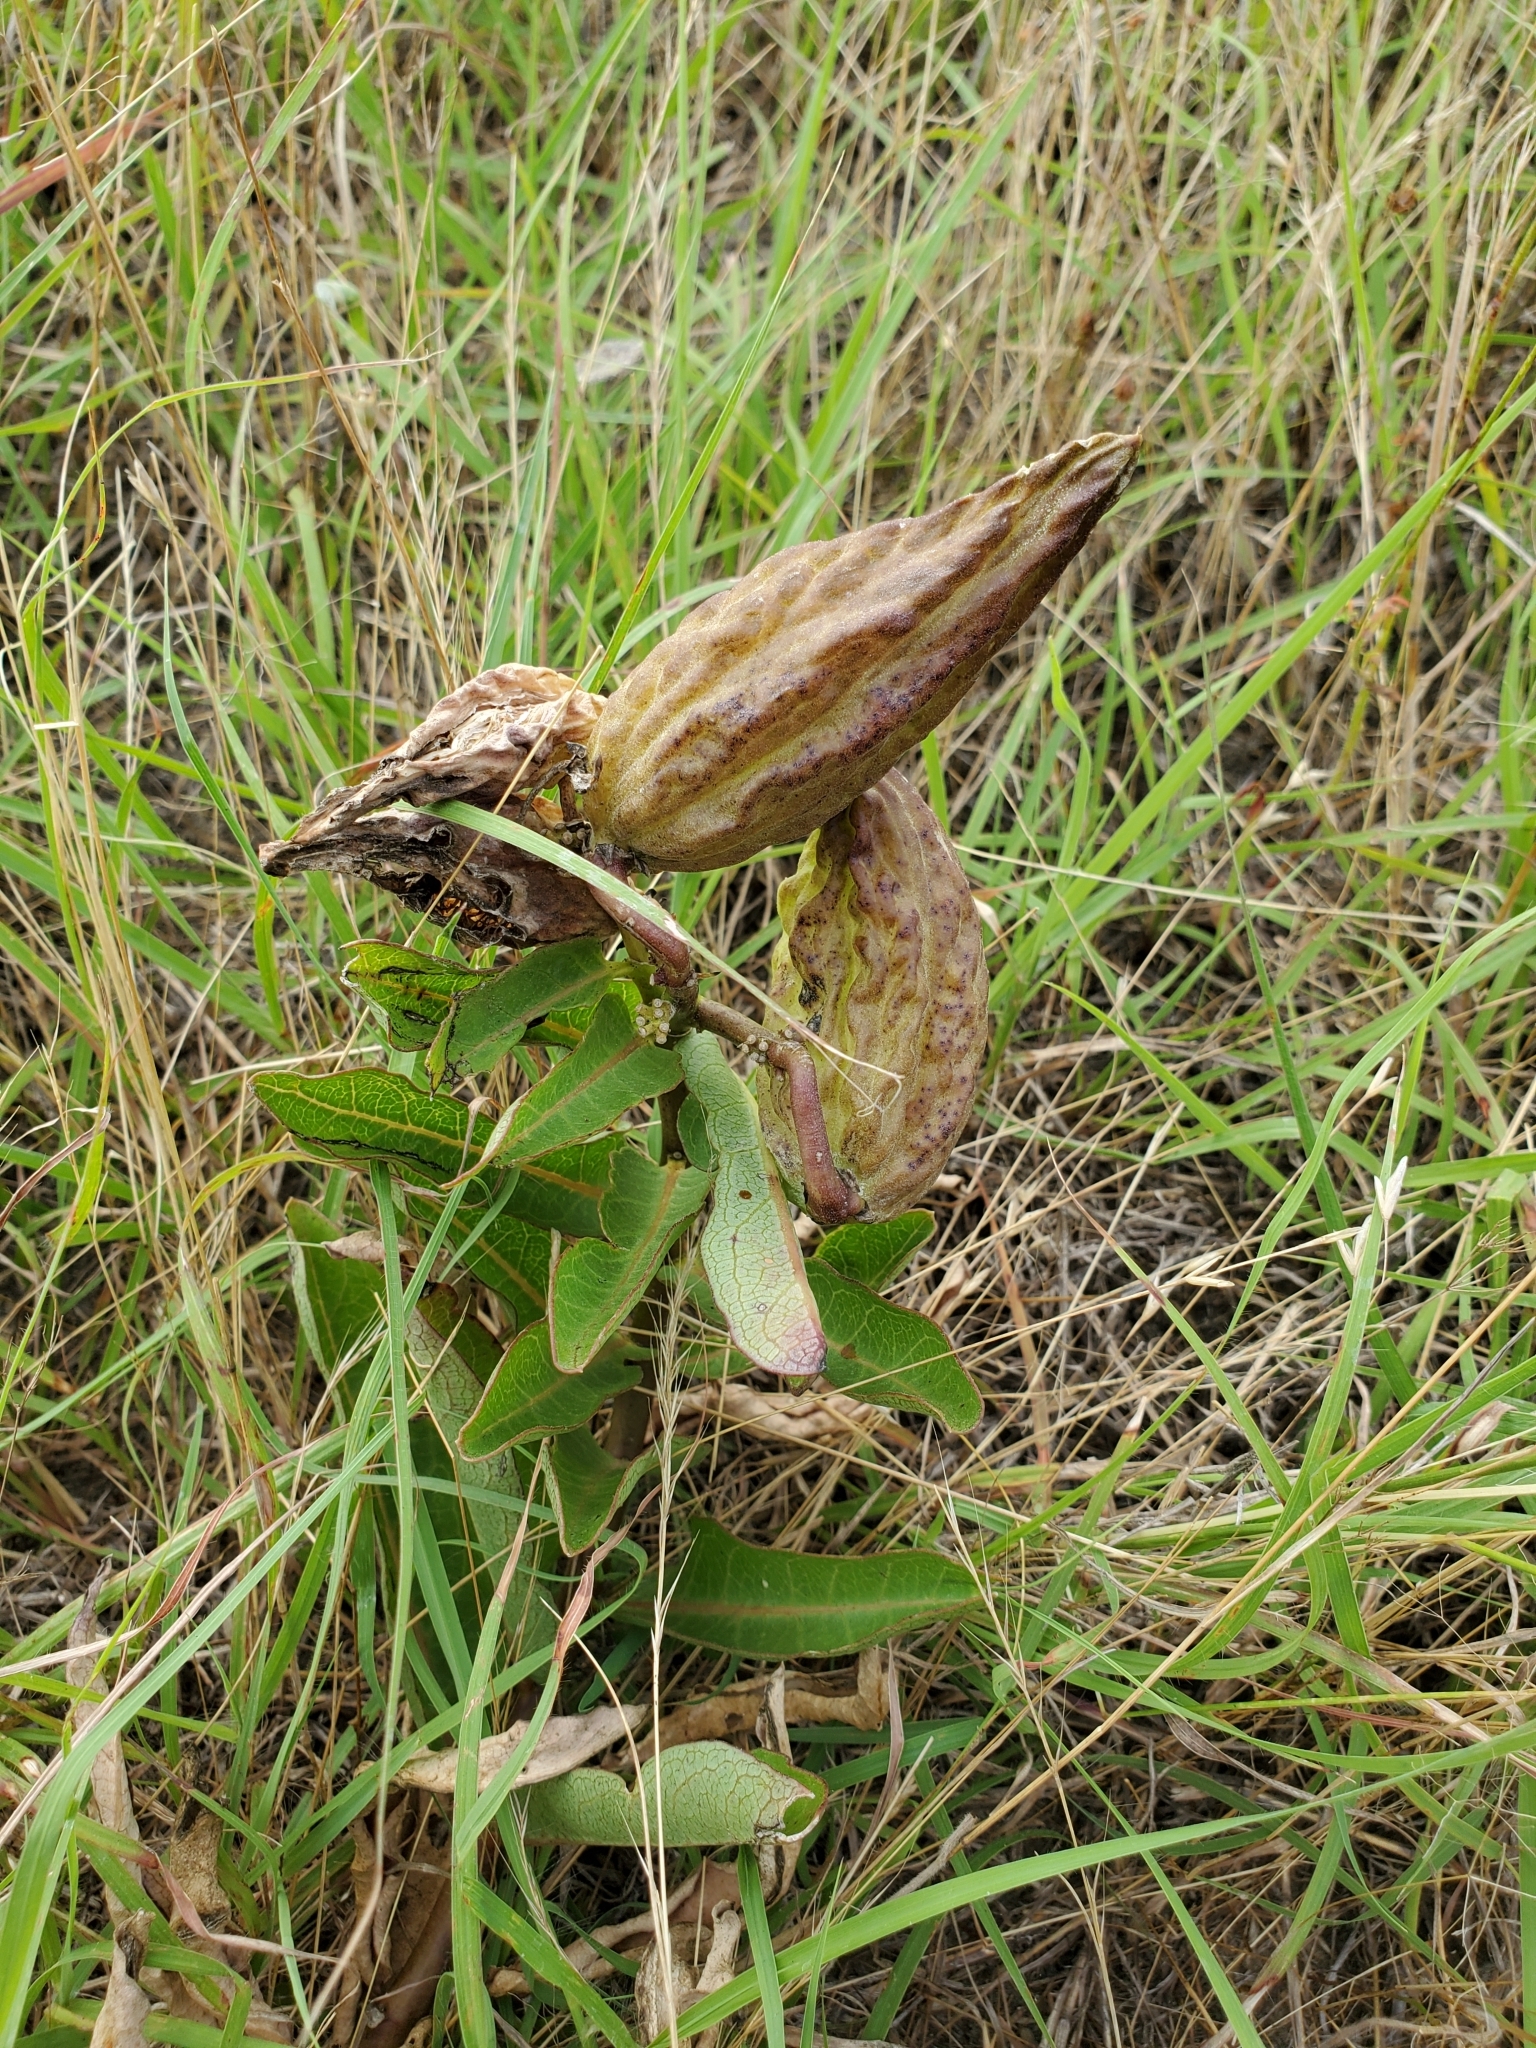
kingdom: Plantae
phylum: Tracheophyta
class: Magnoliopsida
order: Gentianales
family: Apocynaceae
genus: Asclepias
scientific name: Asclepias viridis
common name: Antelope-horns
